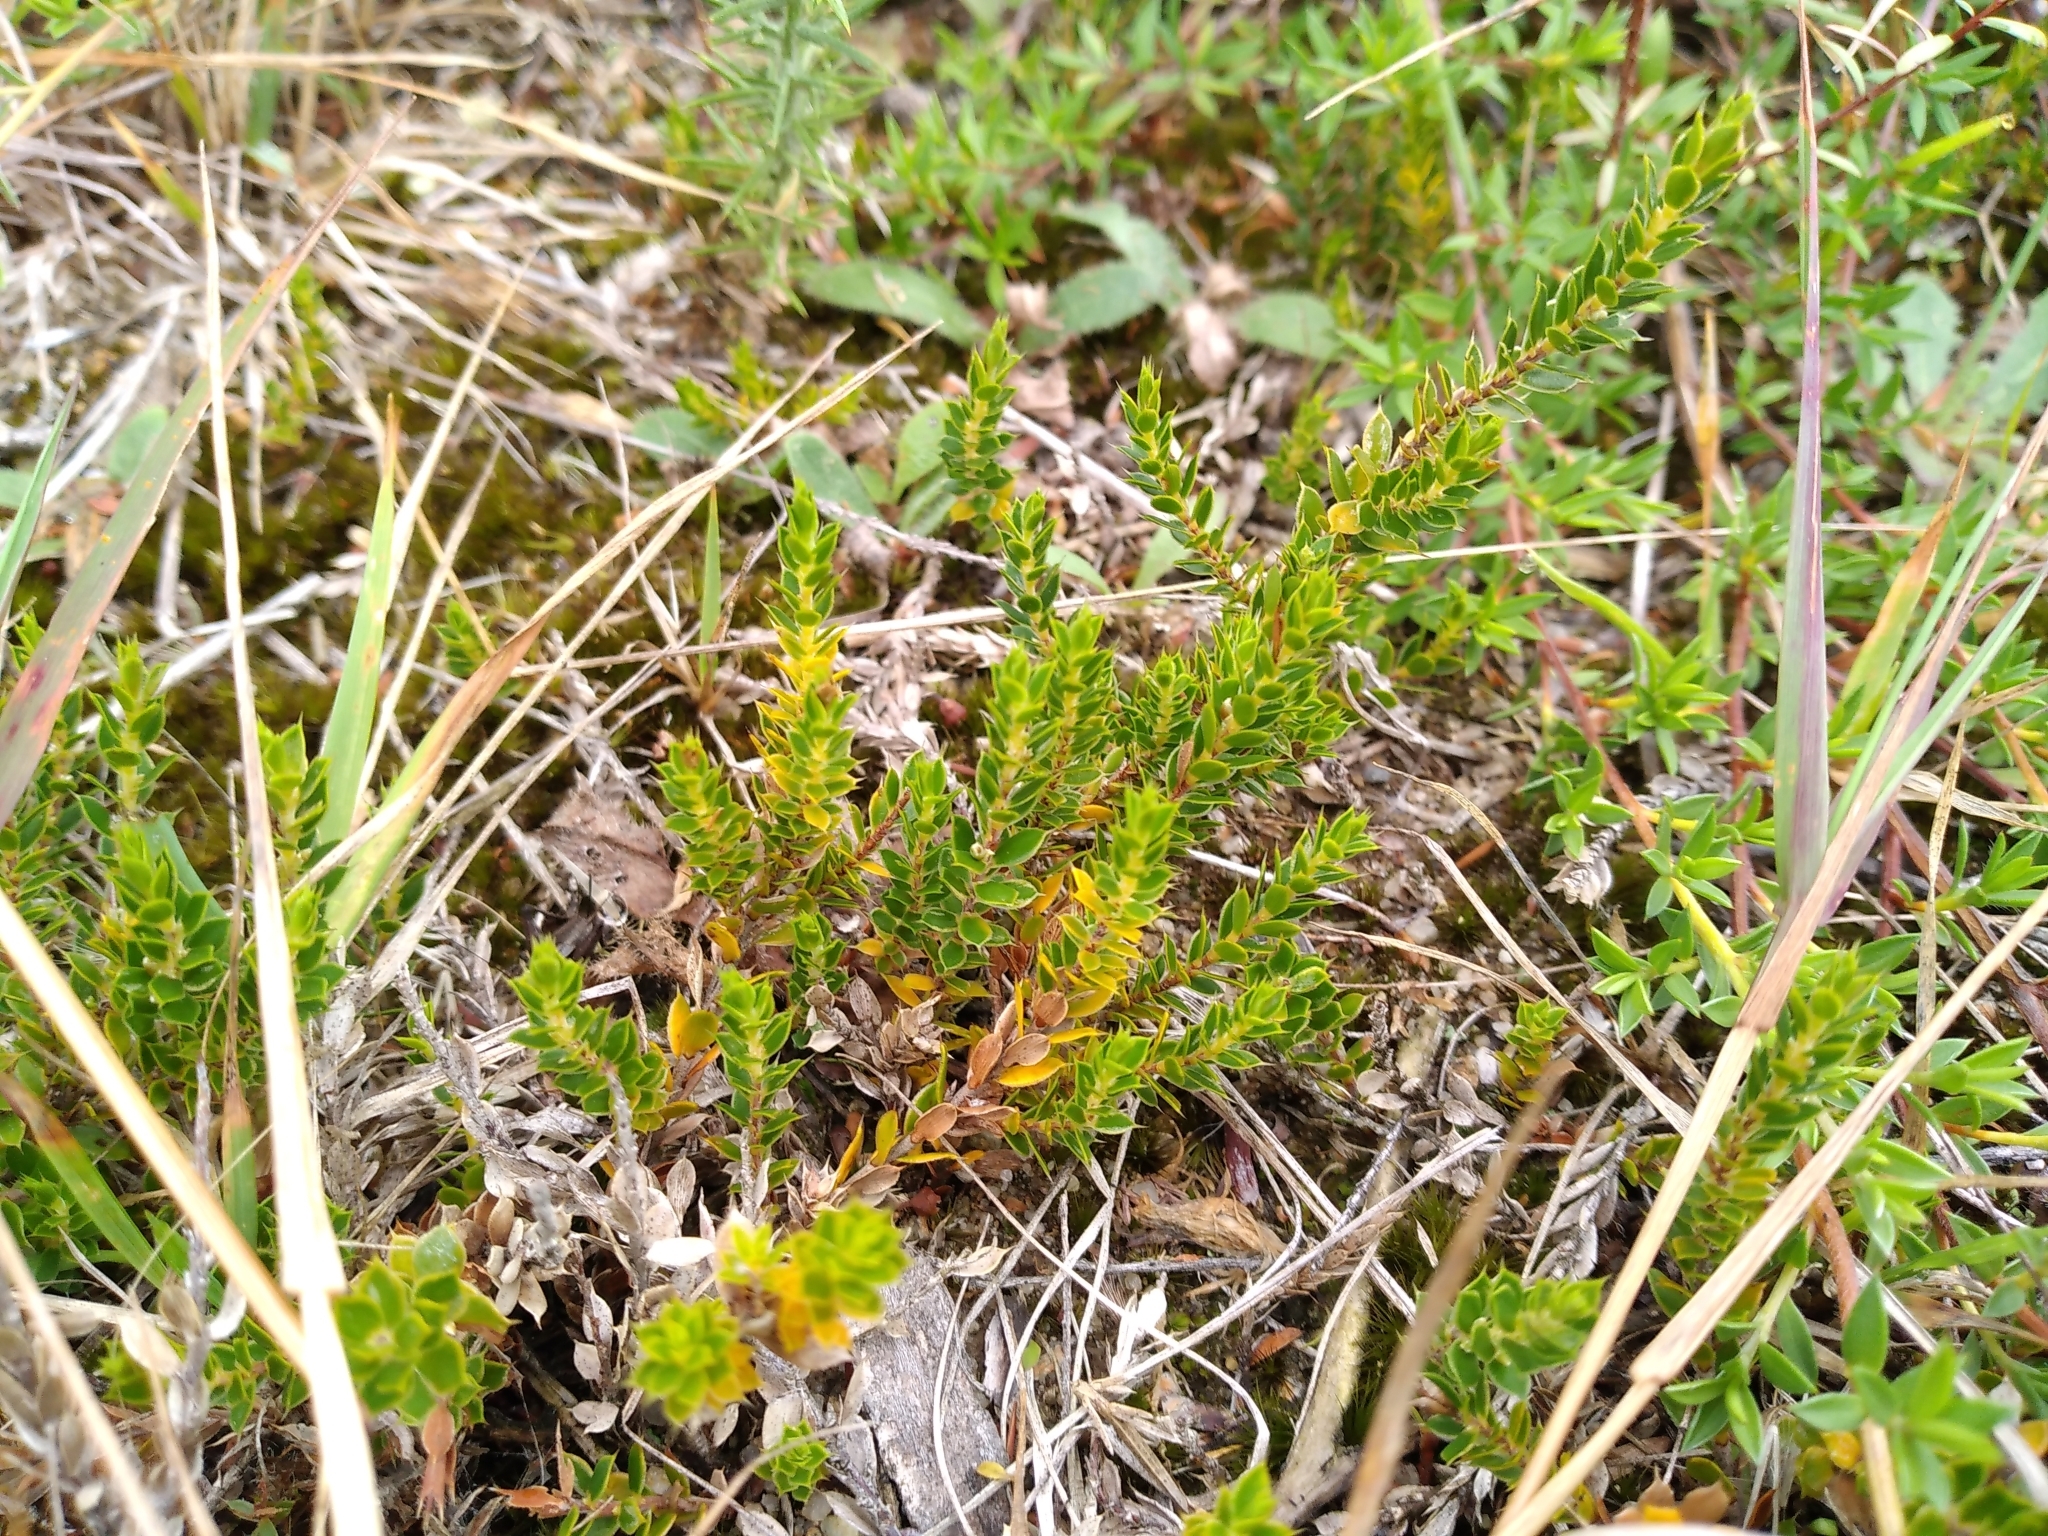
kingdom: Plantae
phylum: Tracheophyta
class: Magnoliopsida
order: Ericales
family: Ericaceae
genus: Styphelia
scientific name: Styphelia nesophila
